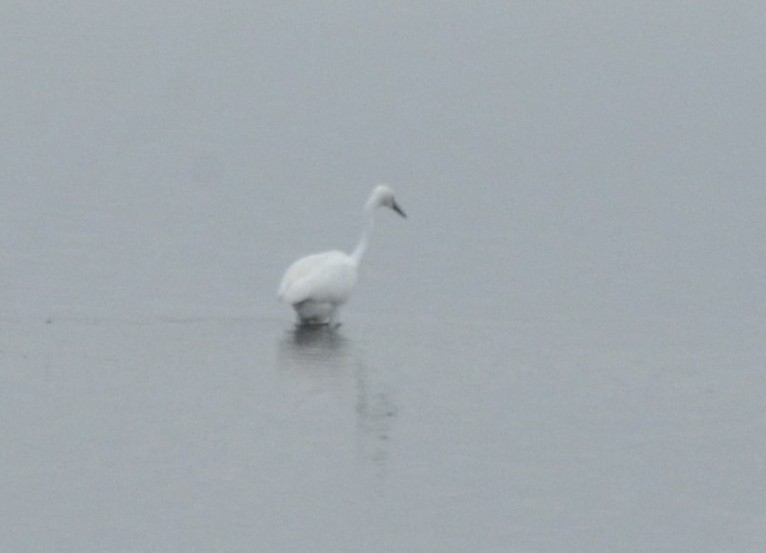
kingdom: Animalia
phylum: Chordata
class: Aves
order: Pelecaniformes
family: Ardeidae
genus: Egretta
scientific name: Egretta garzetta
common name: Little egret
